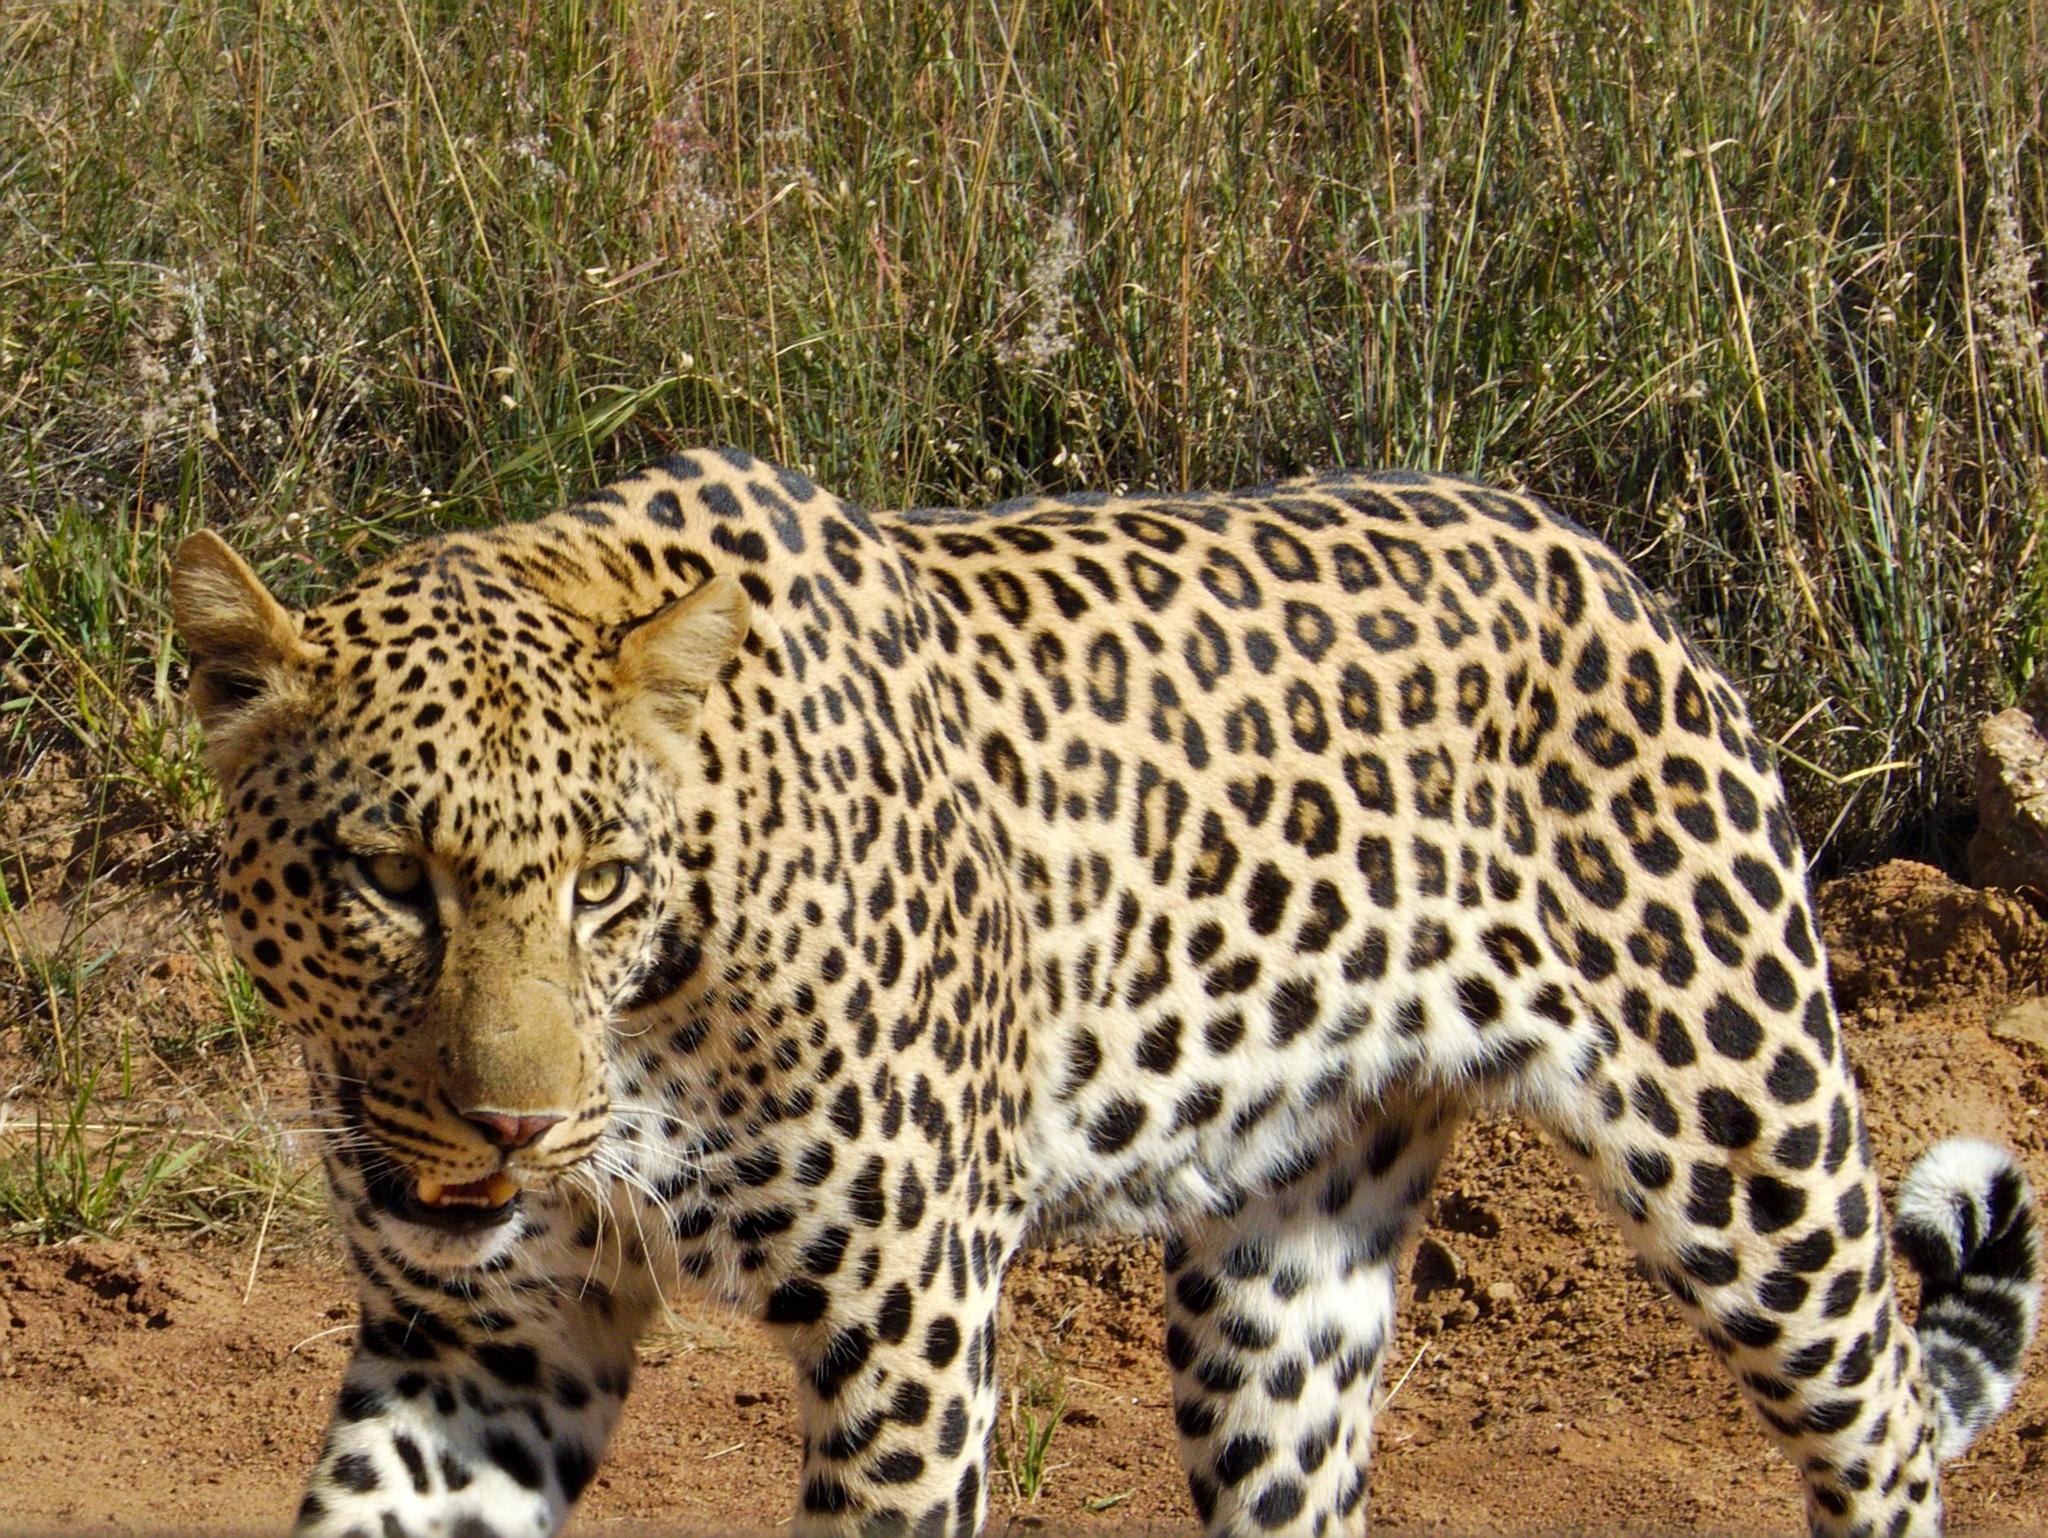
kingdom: Animalia
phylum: Chordata
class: Mammalia
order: Carnivora
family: Felidae
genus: Panthera
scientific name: Panthera pardus
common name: Leopard
